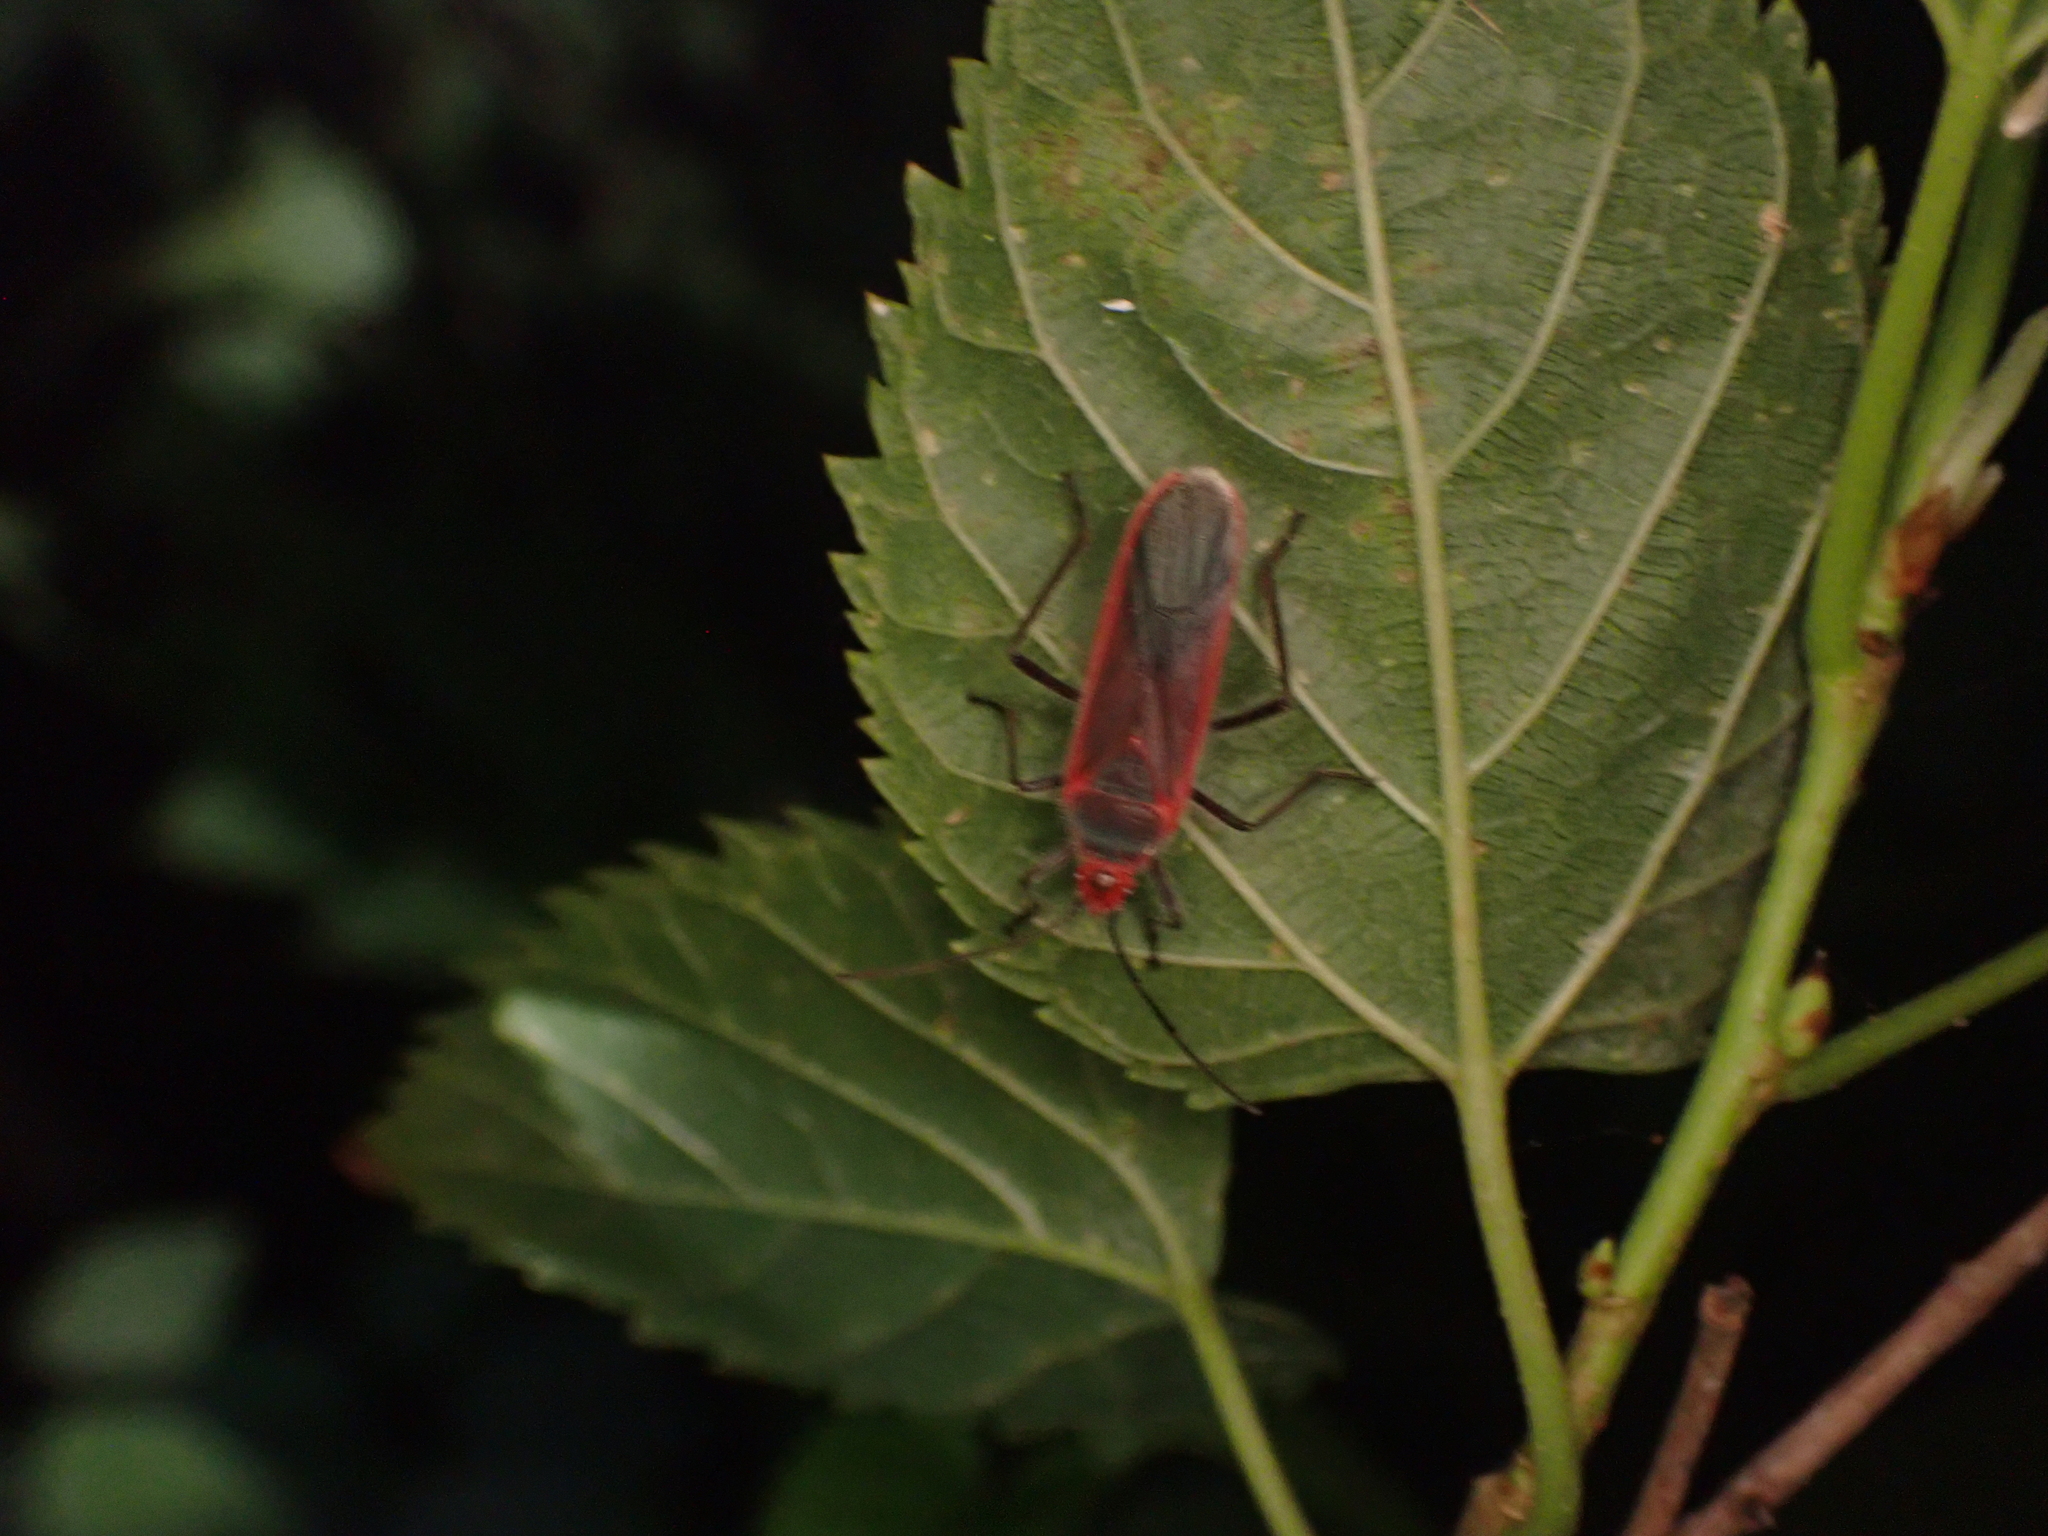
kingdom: Animalia
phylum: Arthropoda
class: Insecta
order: Hemiptera
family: Lygaeidae
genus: Thunbergia
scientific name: Thunbergia marginatus
